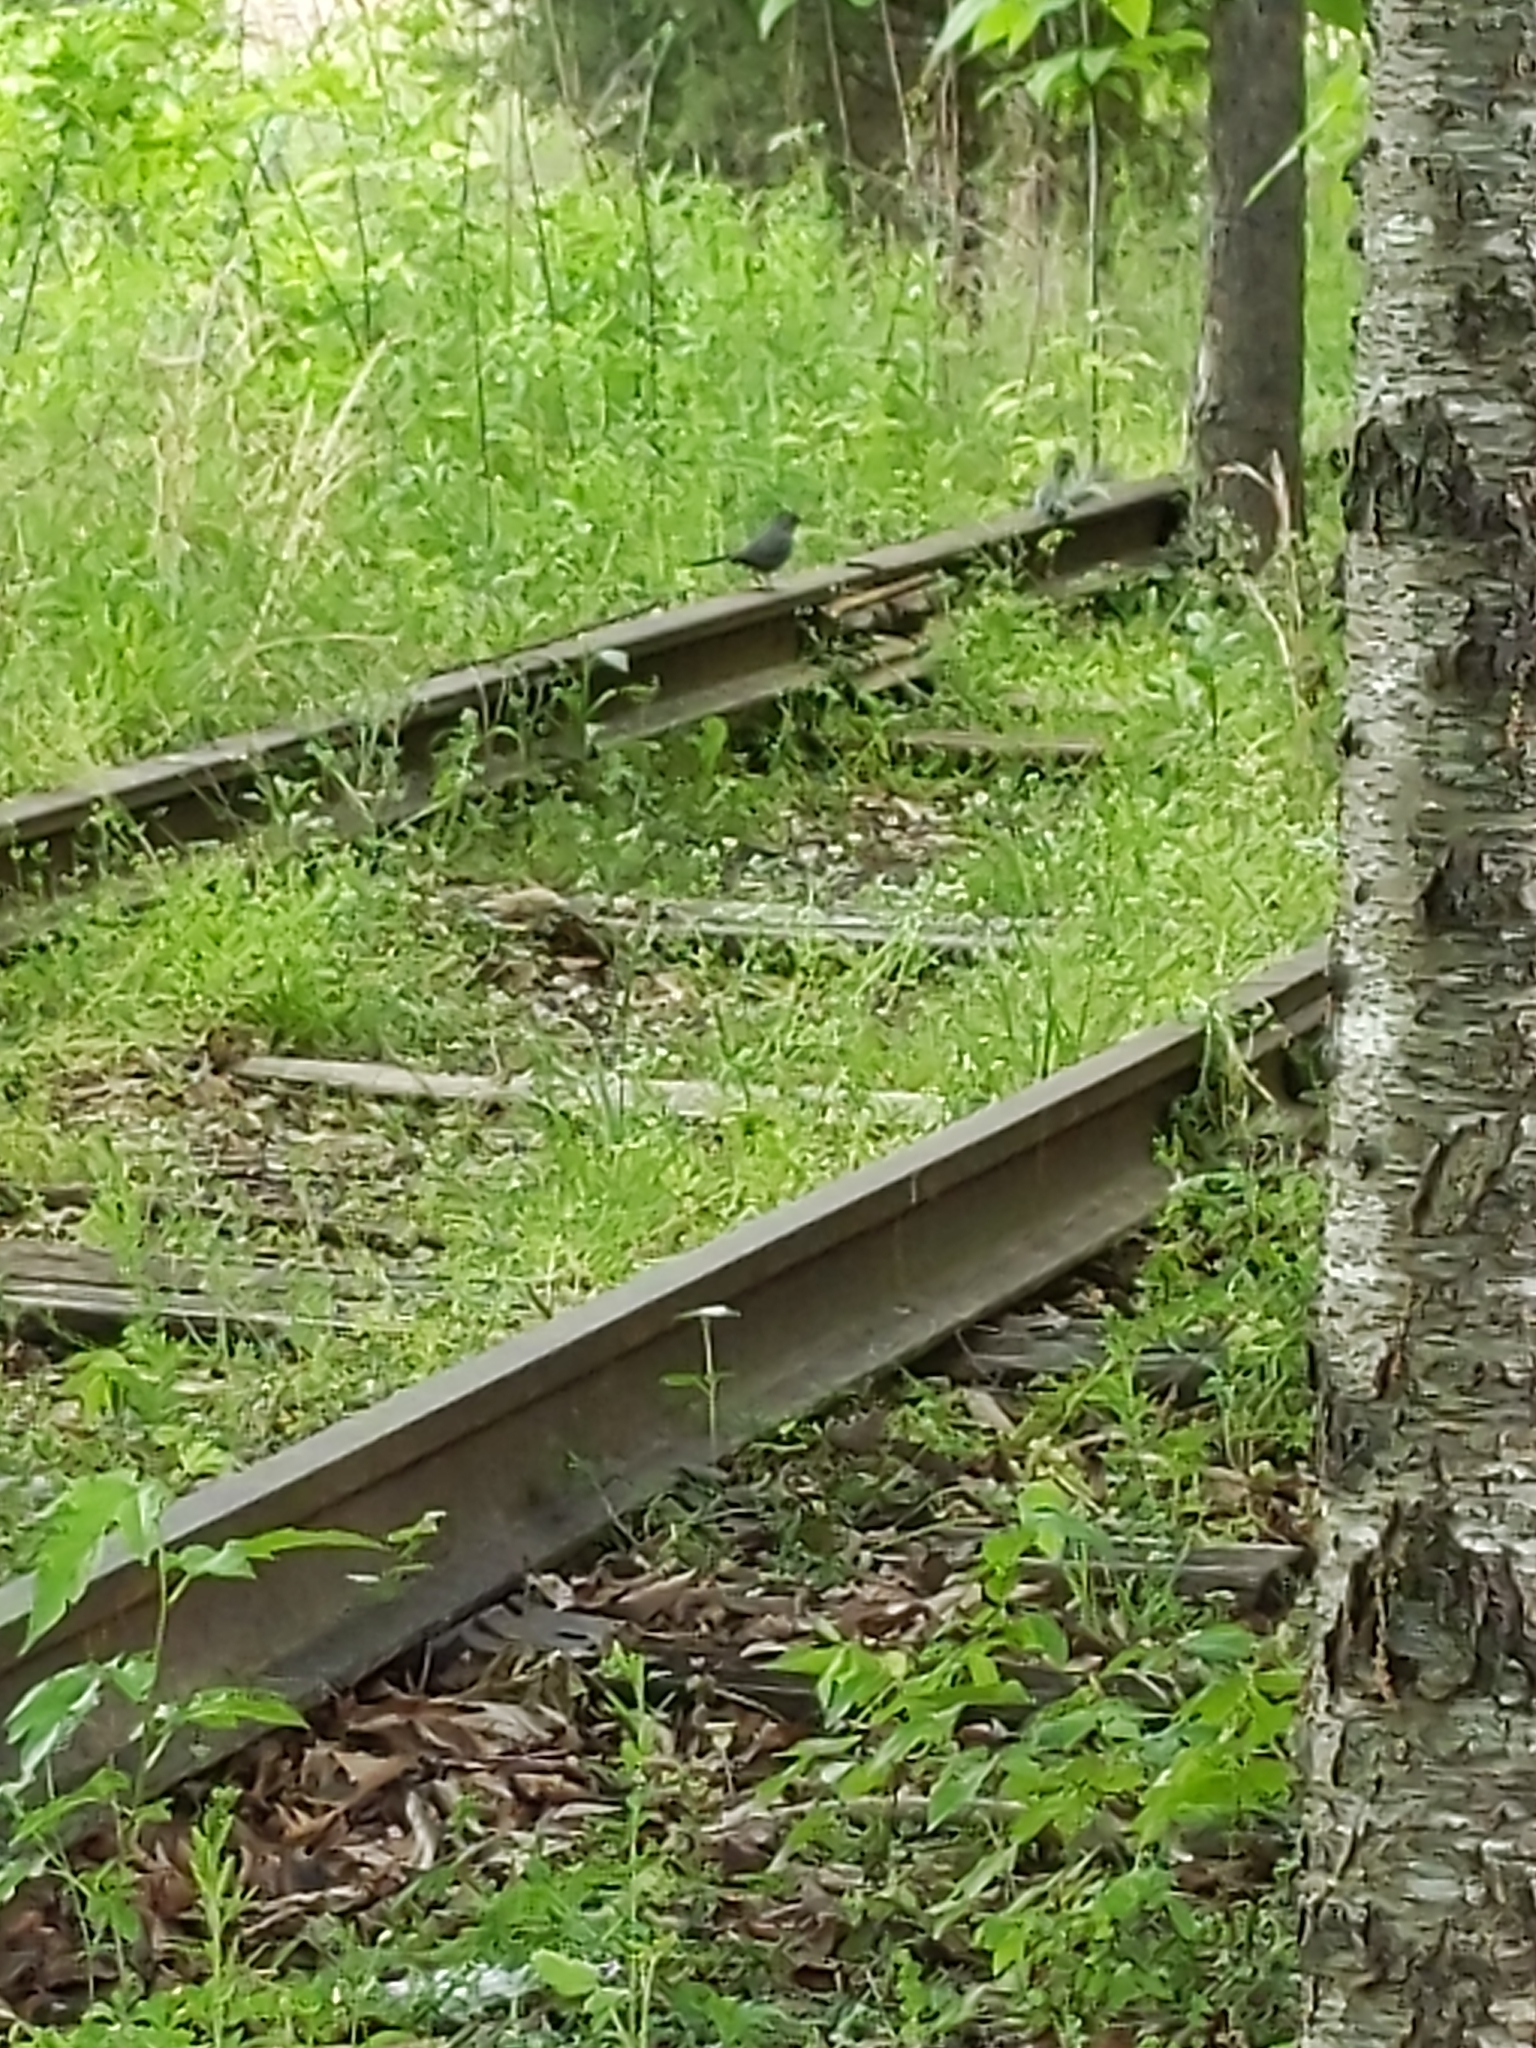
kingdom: Animalia
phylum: Chordata
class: Aves
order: Passeriformes
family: Mimidae
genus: Dumetella
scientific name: Dumetella carolinensis
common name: Gray catbird
